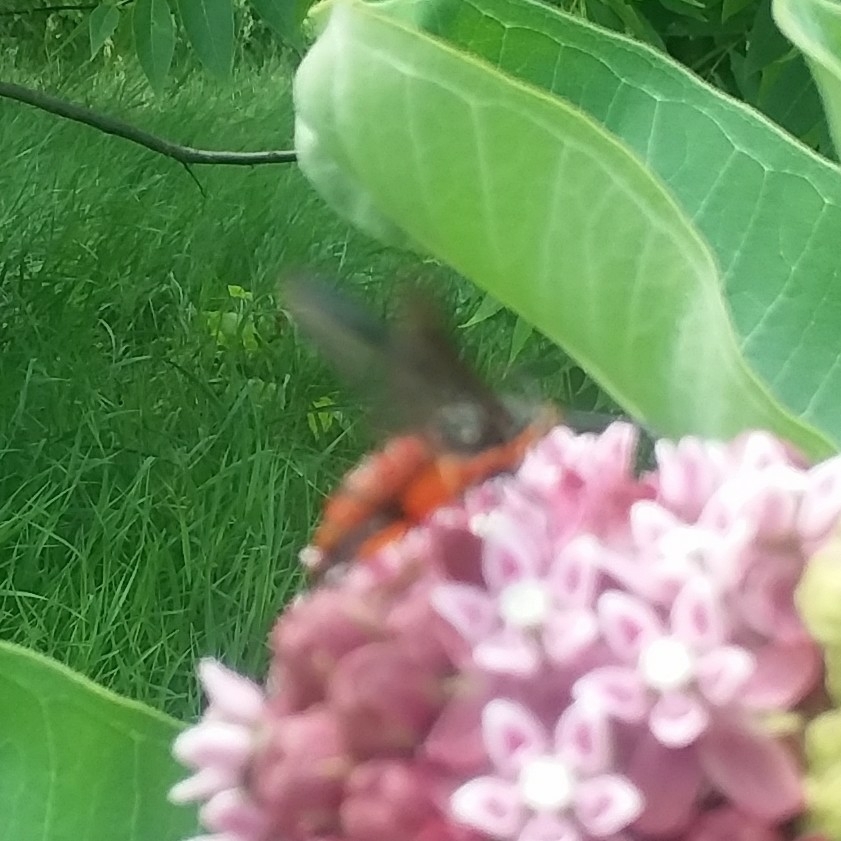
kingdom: Animalia
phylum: Arthropoda
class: Insecta
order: Lepidoptera
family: Sesiidae
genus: Eichlinia
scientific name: Eichlinia cucurbitae
